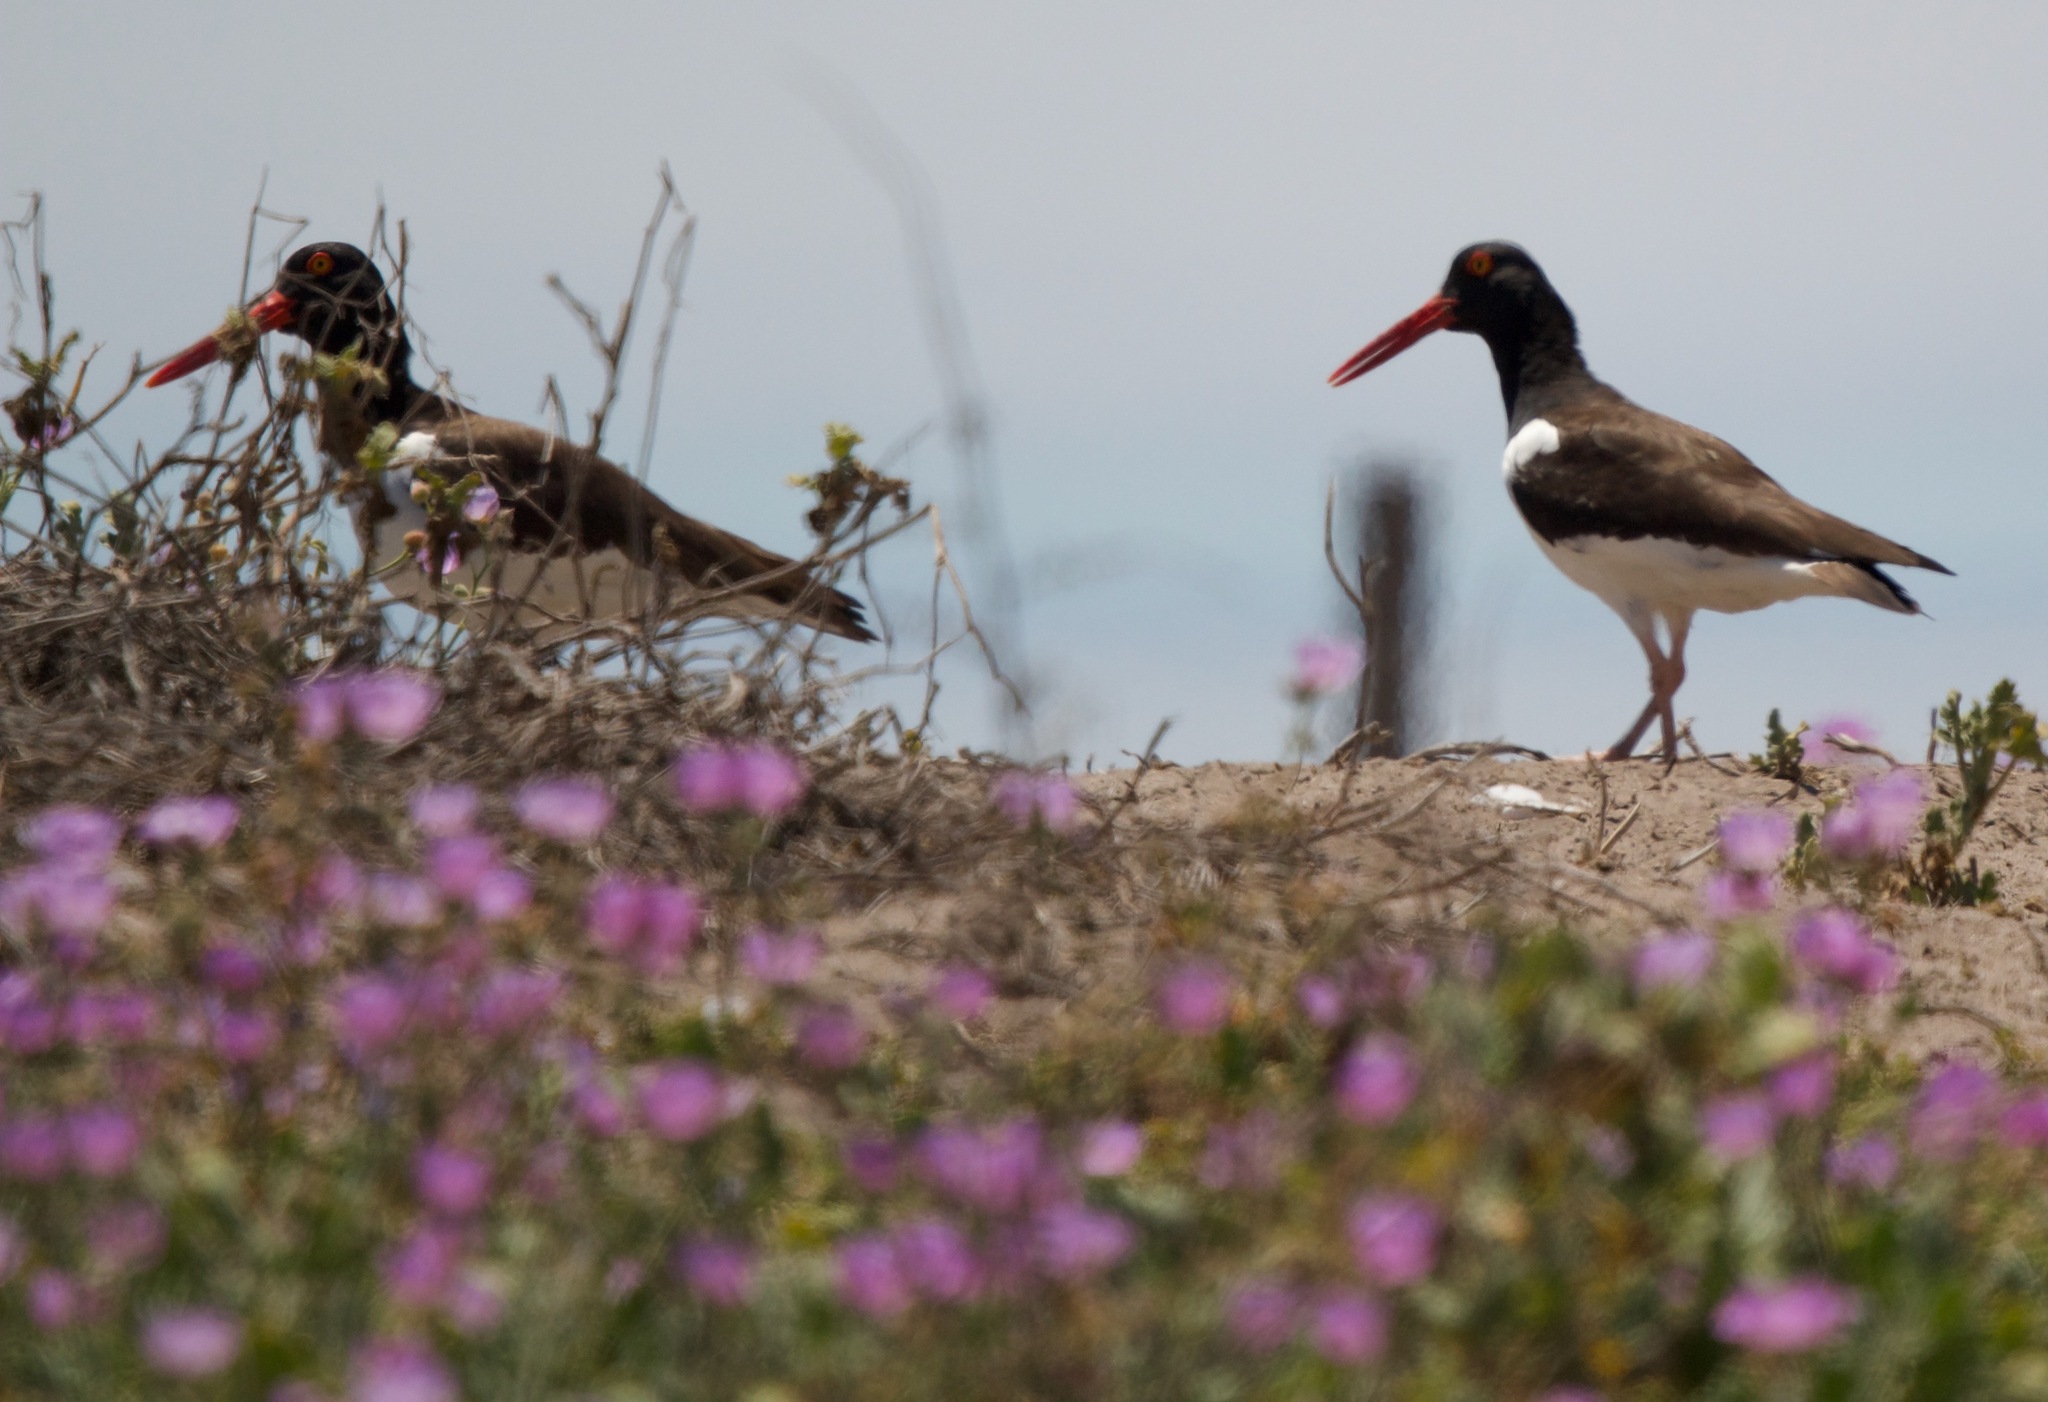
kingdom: Animalia
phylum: Chordata
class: Aves
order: Charadriiformes
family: Haematopodidae
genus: Haematopus
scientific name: Haematopus palliatus
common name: American oystercatcher
